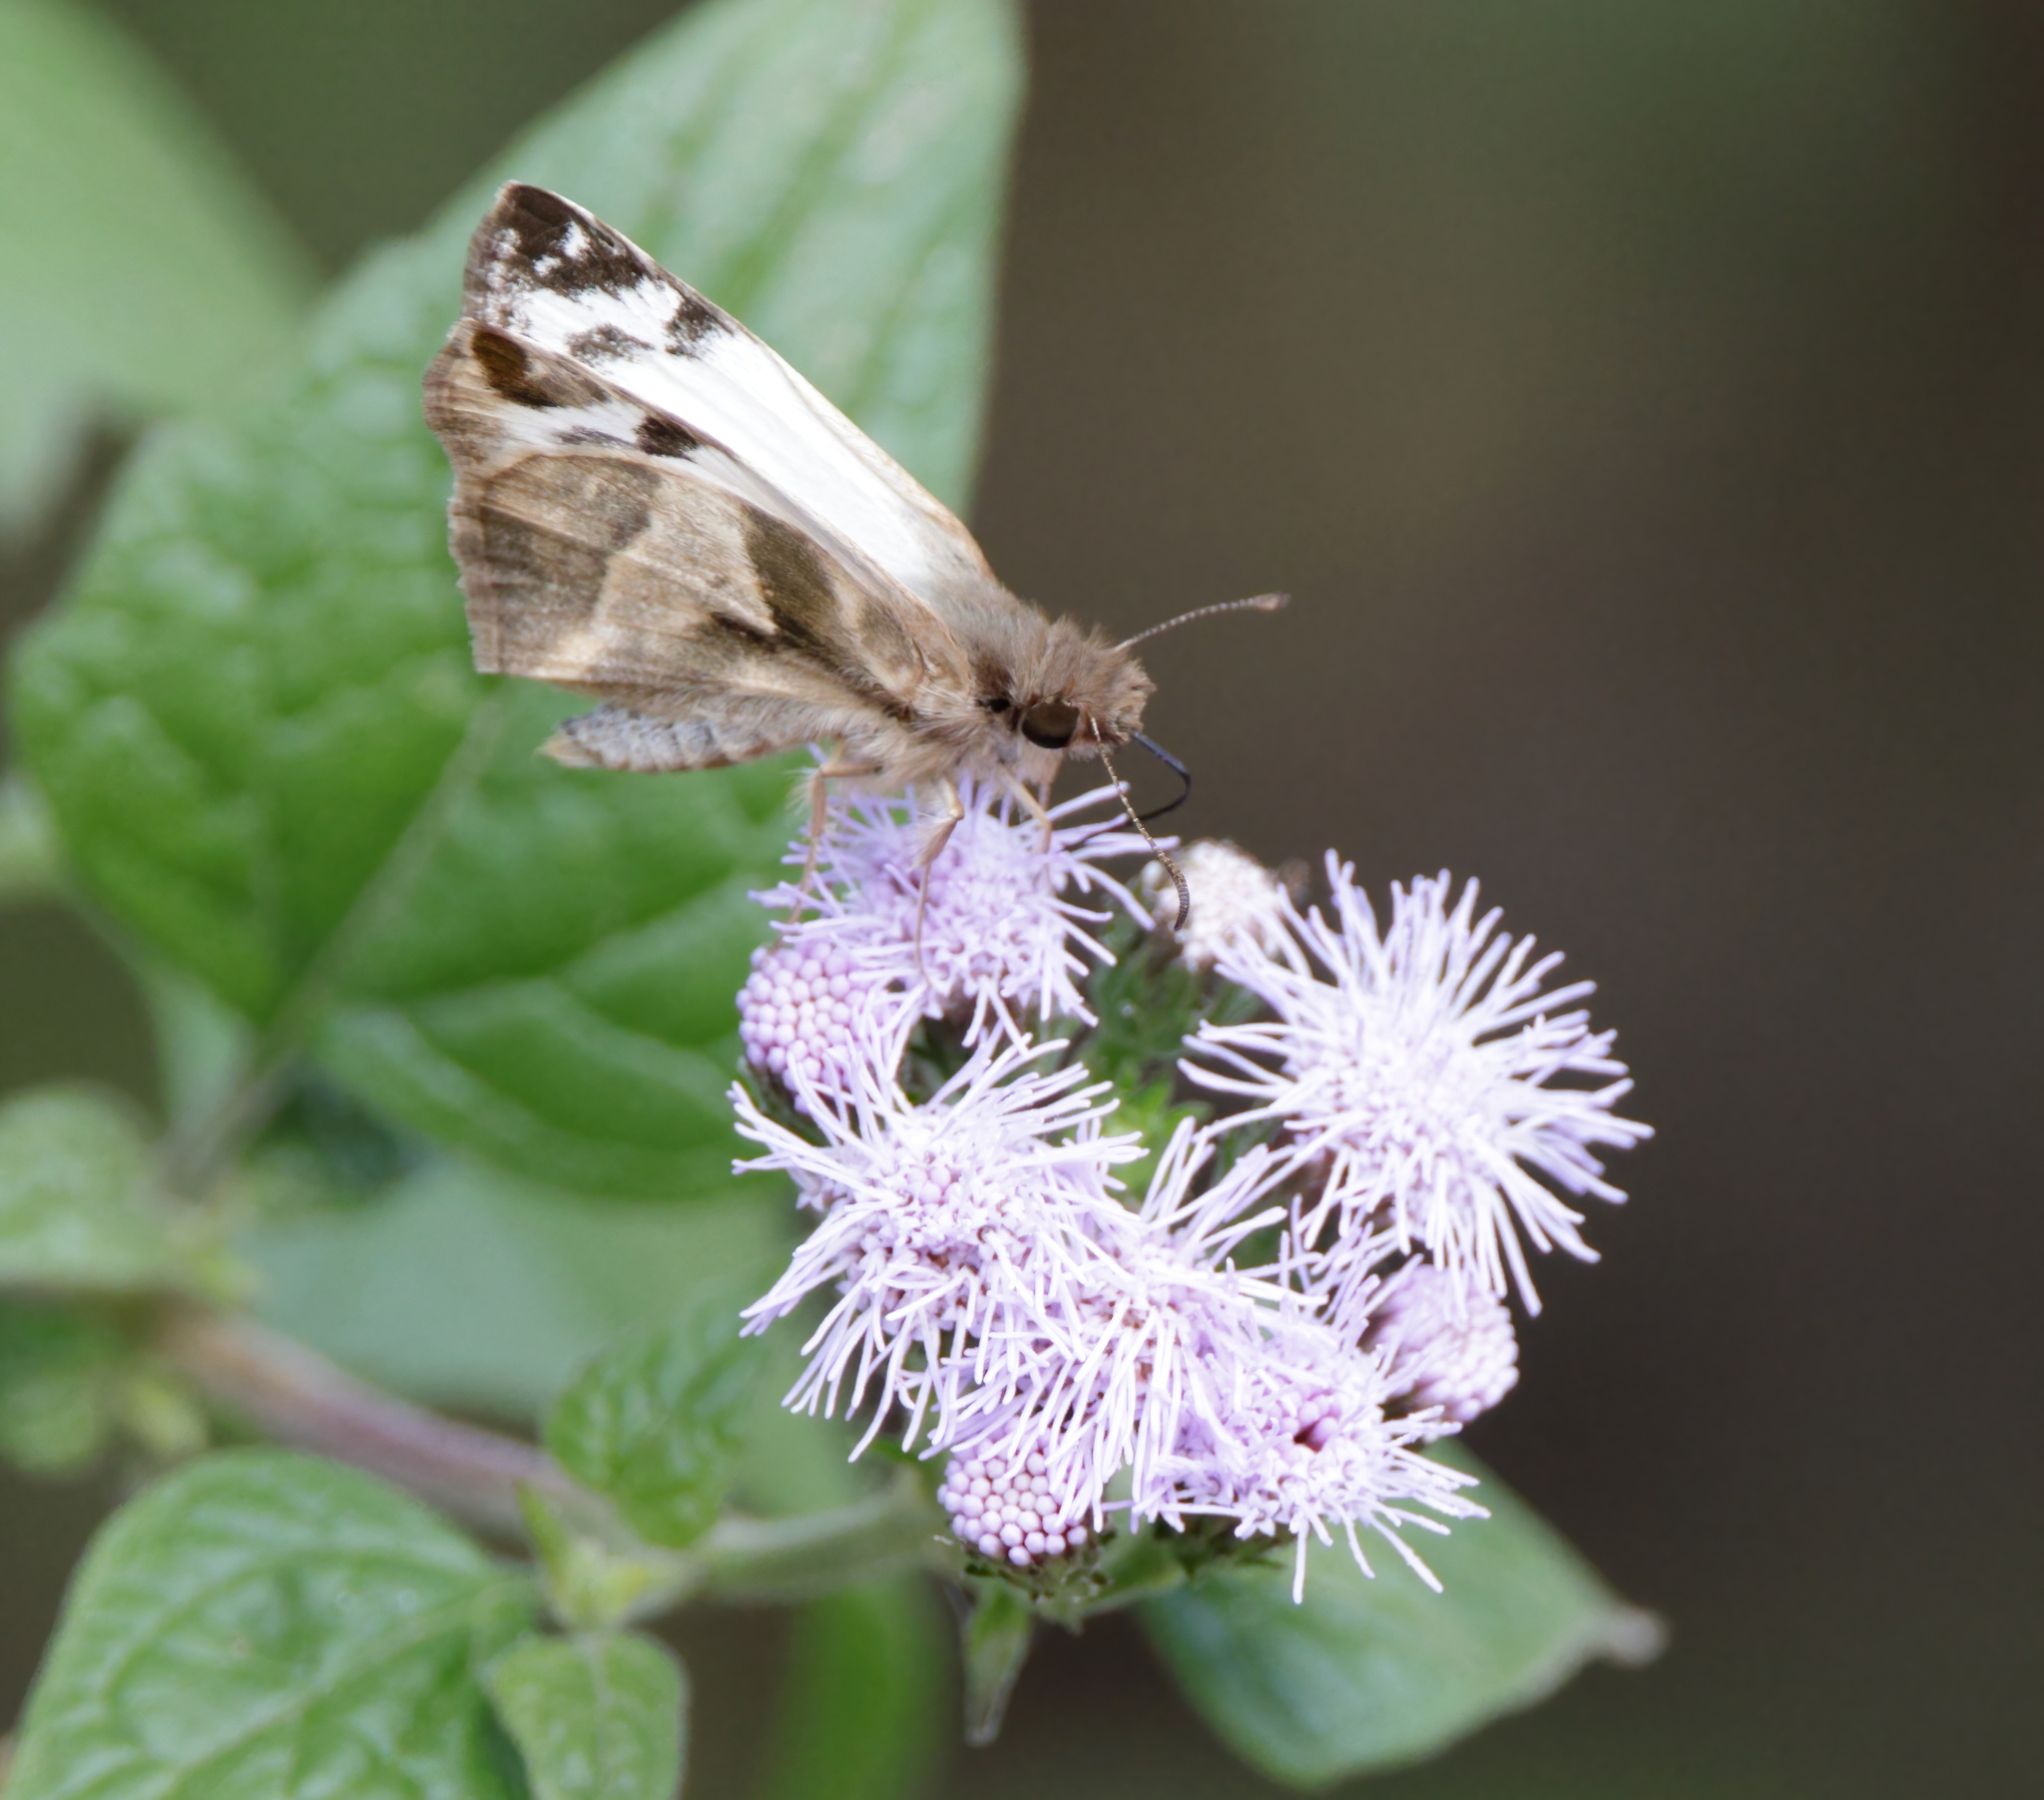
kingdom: Animalia
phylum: Arthropoda
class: Insecta
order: Lepidoptera
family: Hesperiidae
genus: Heliopetes
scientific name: Heliopetes laviana
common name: Laviana white-skipper
